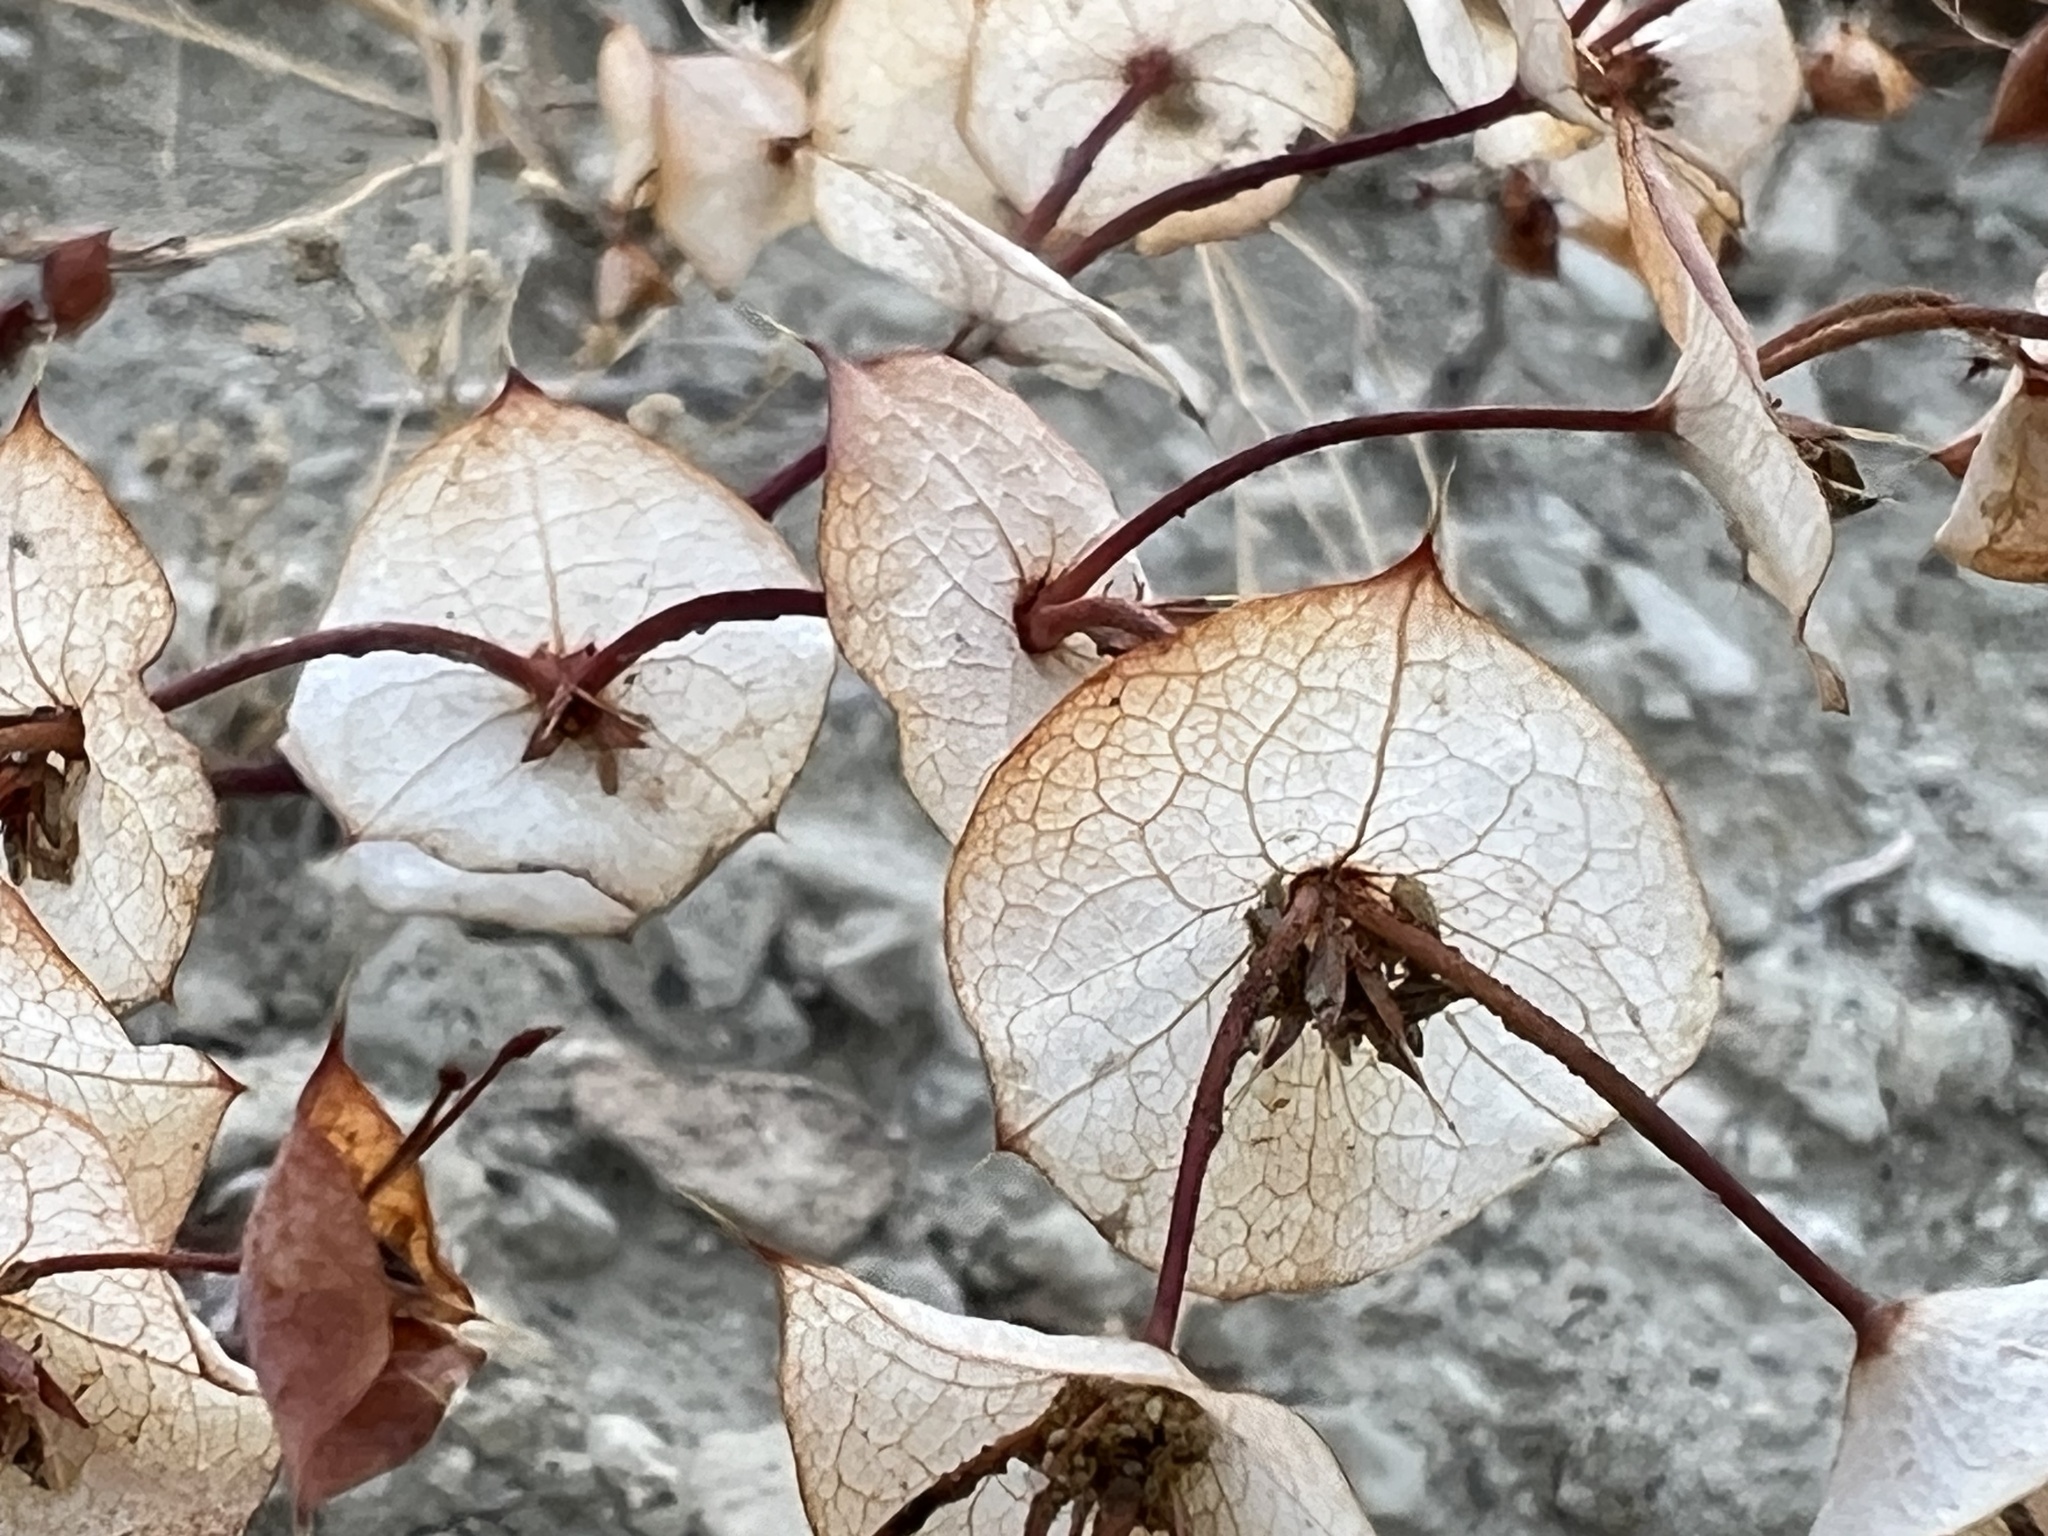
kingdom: Plantae
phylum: Tracheophyta
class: Magnoliopsida
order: Caryophyllales
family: Polygonaceae
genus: Oxytheca
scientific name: Oxytheca perfoliata
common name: Round-leaf puncturebract
